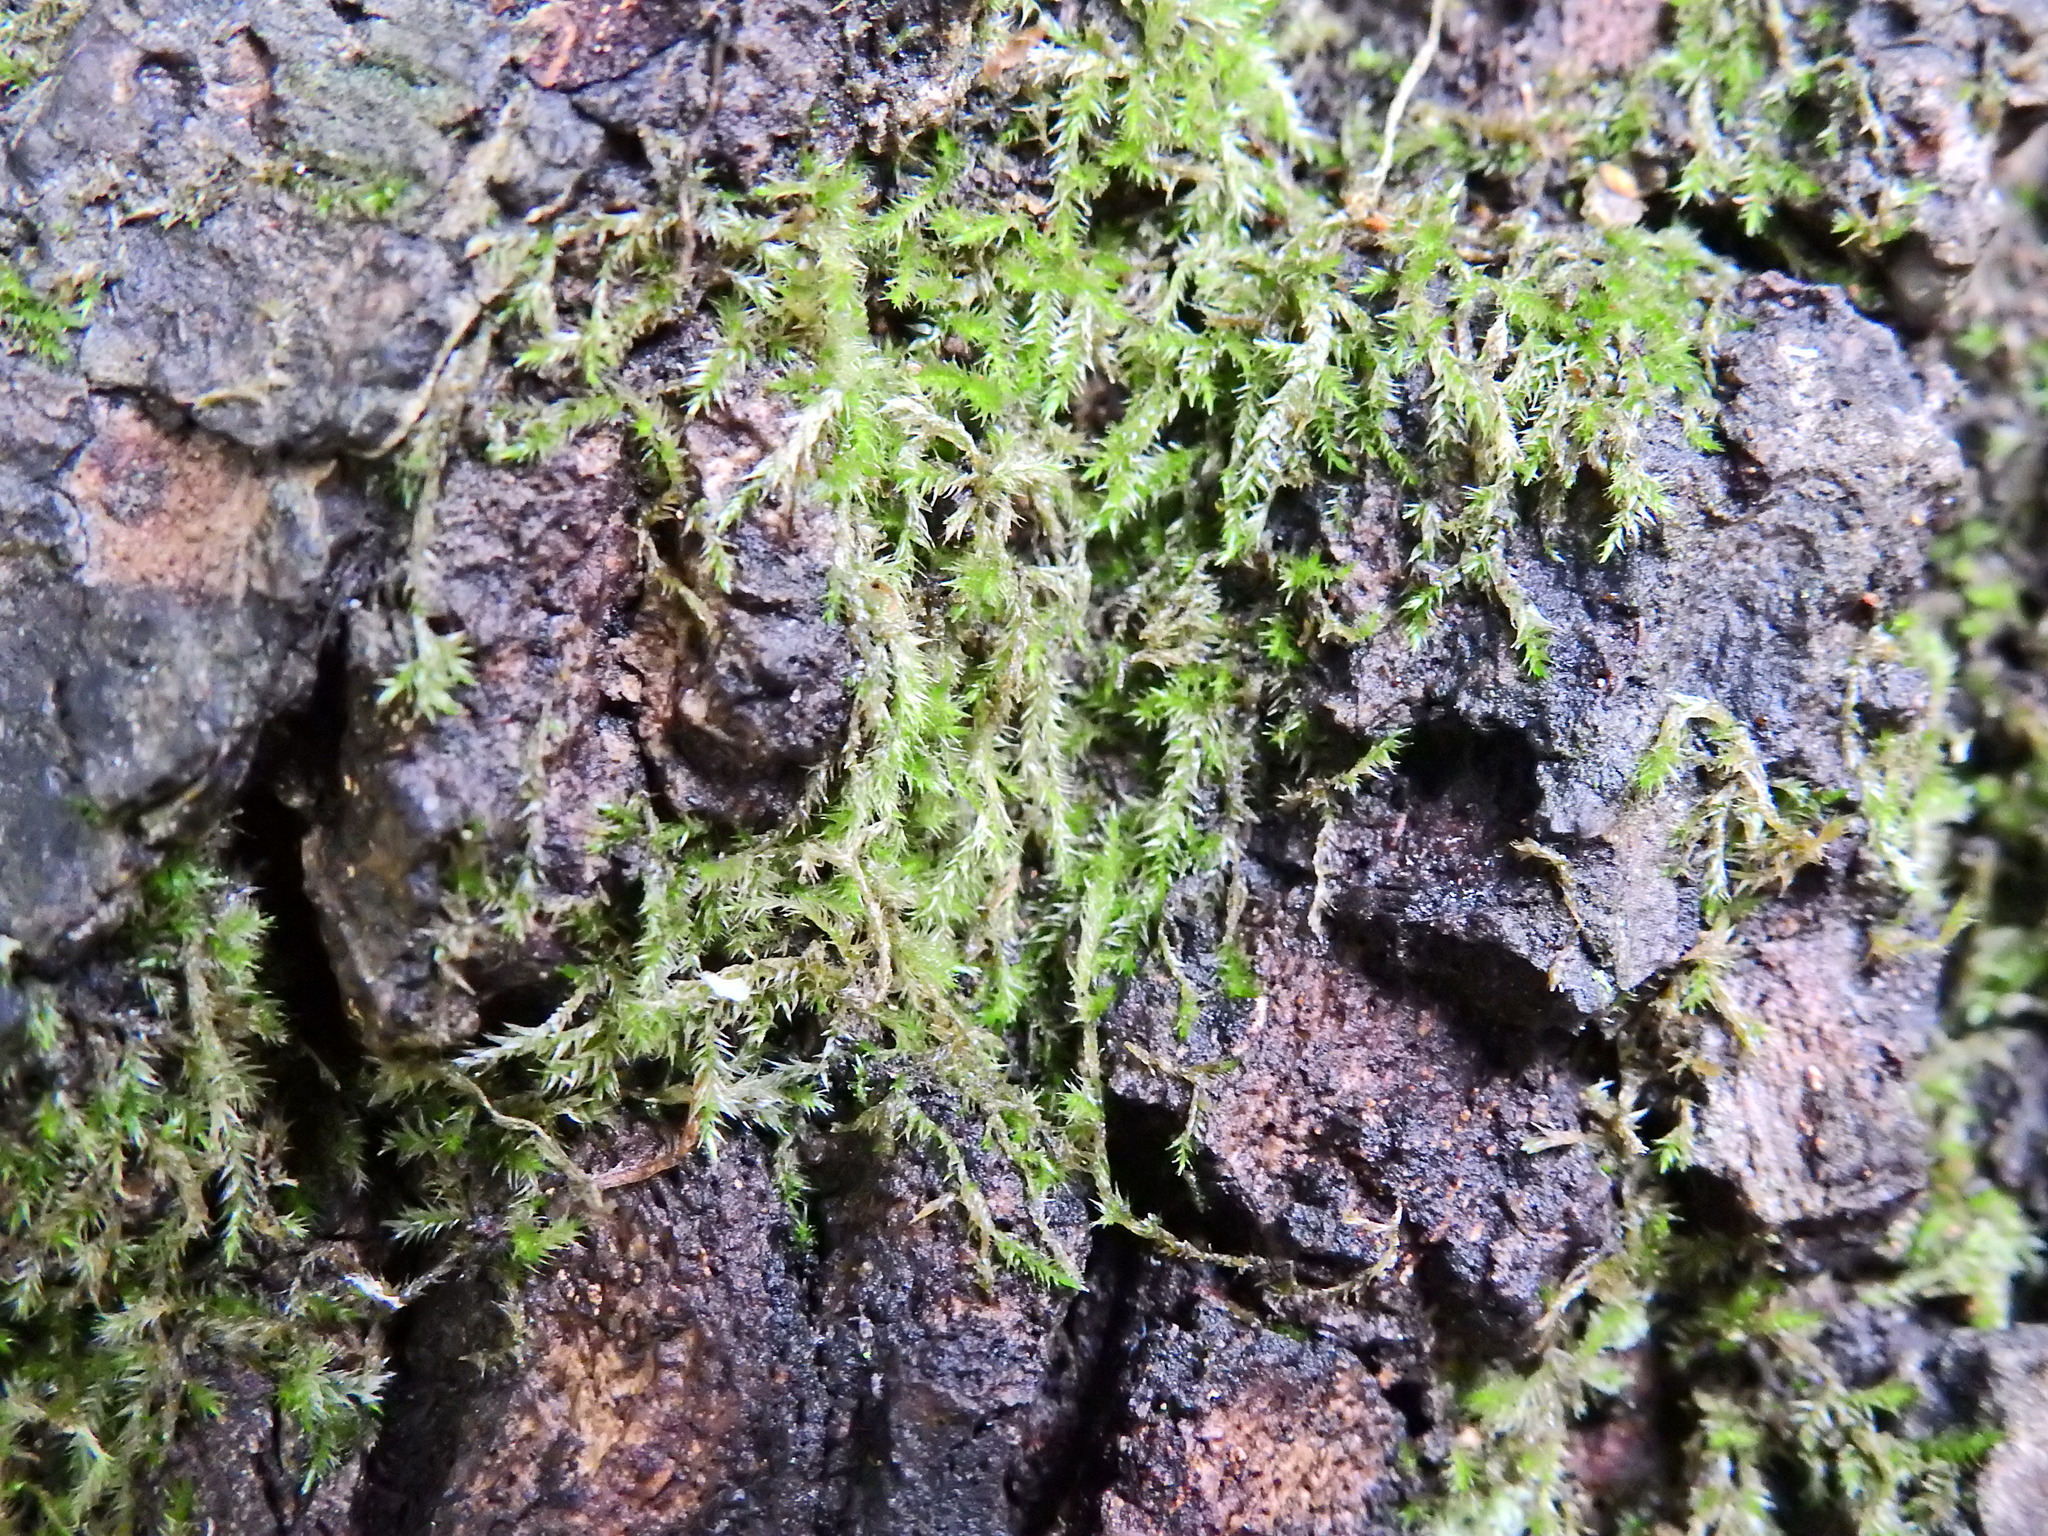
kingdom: Plantae
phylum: Bryophyta
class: Bryopsida
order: Hypnales
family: Brachytheciaceae
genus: Rhynchostegium
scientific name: Rhynchostegium confertum
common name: Clustered feather-moss
